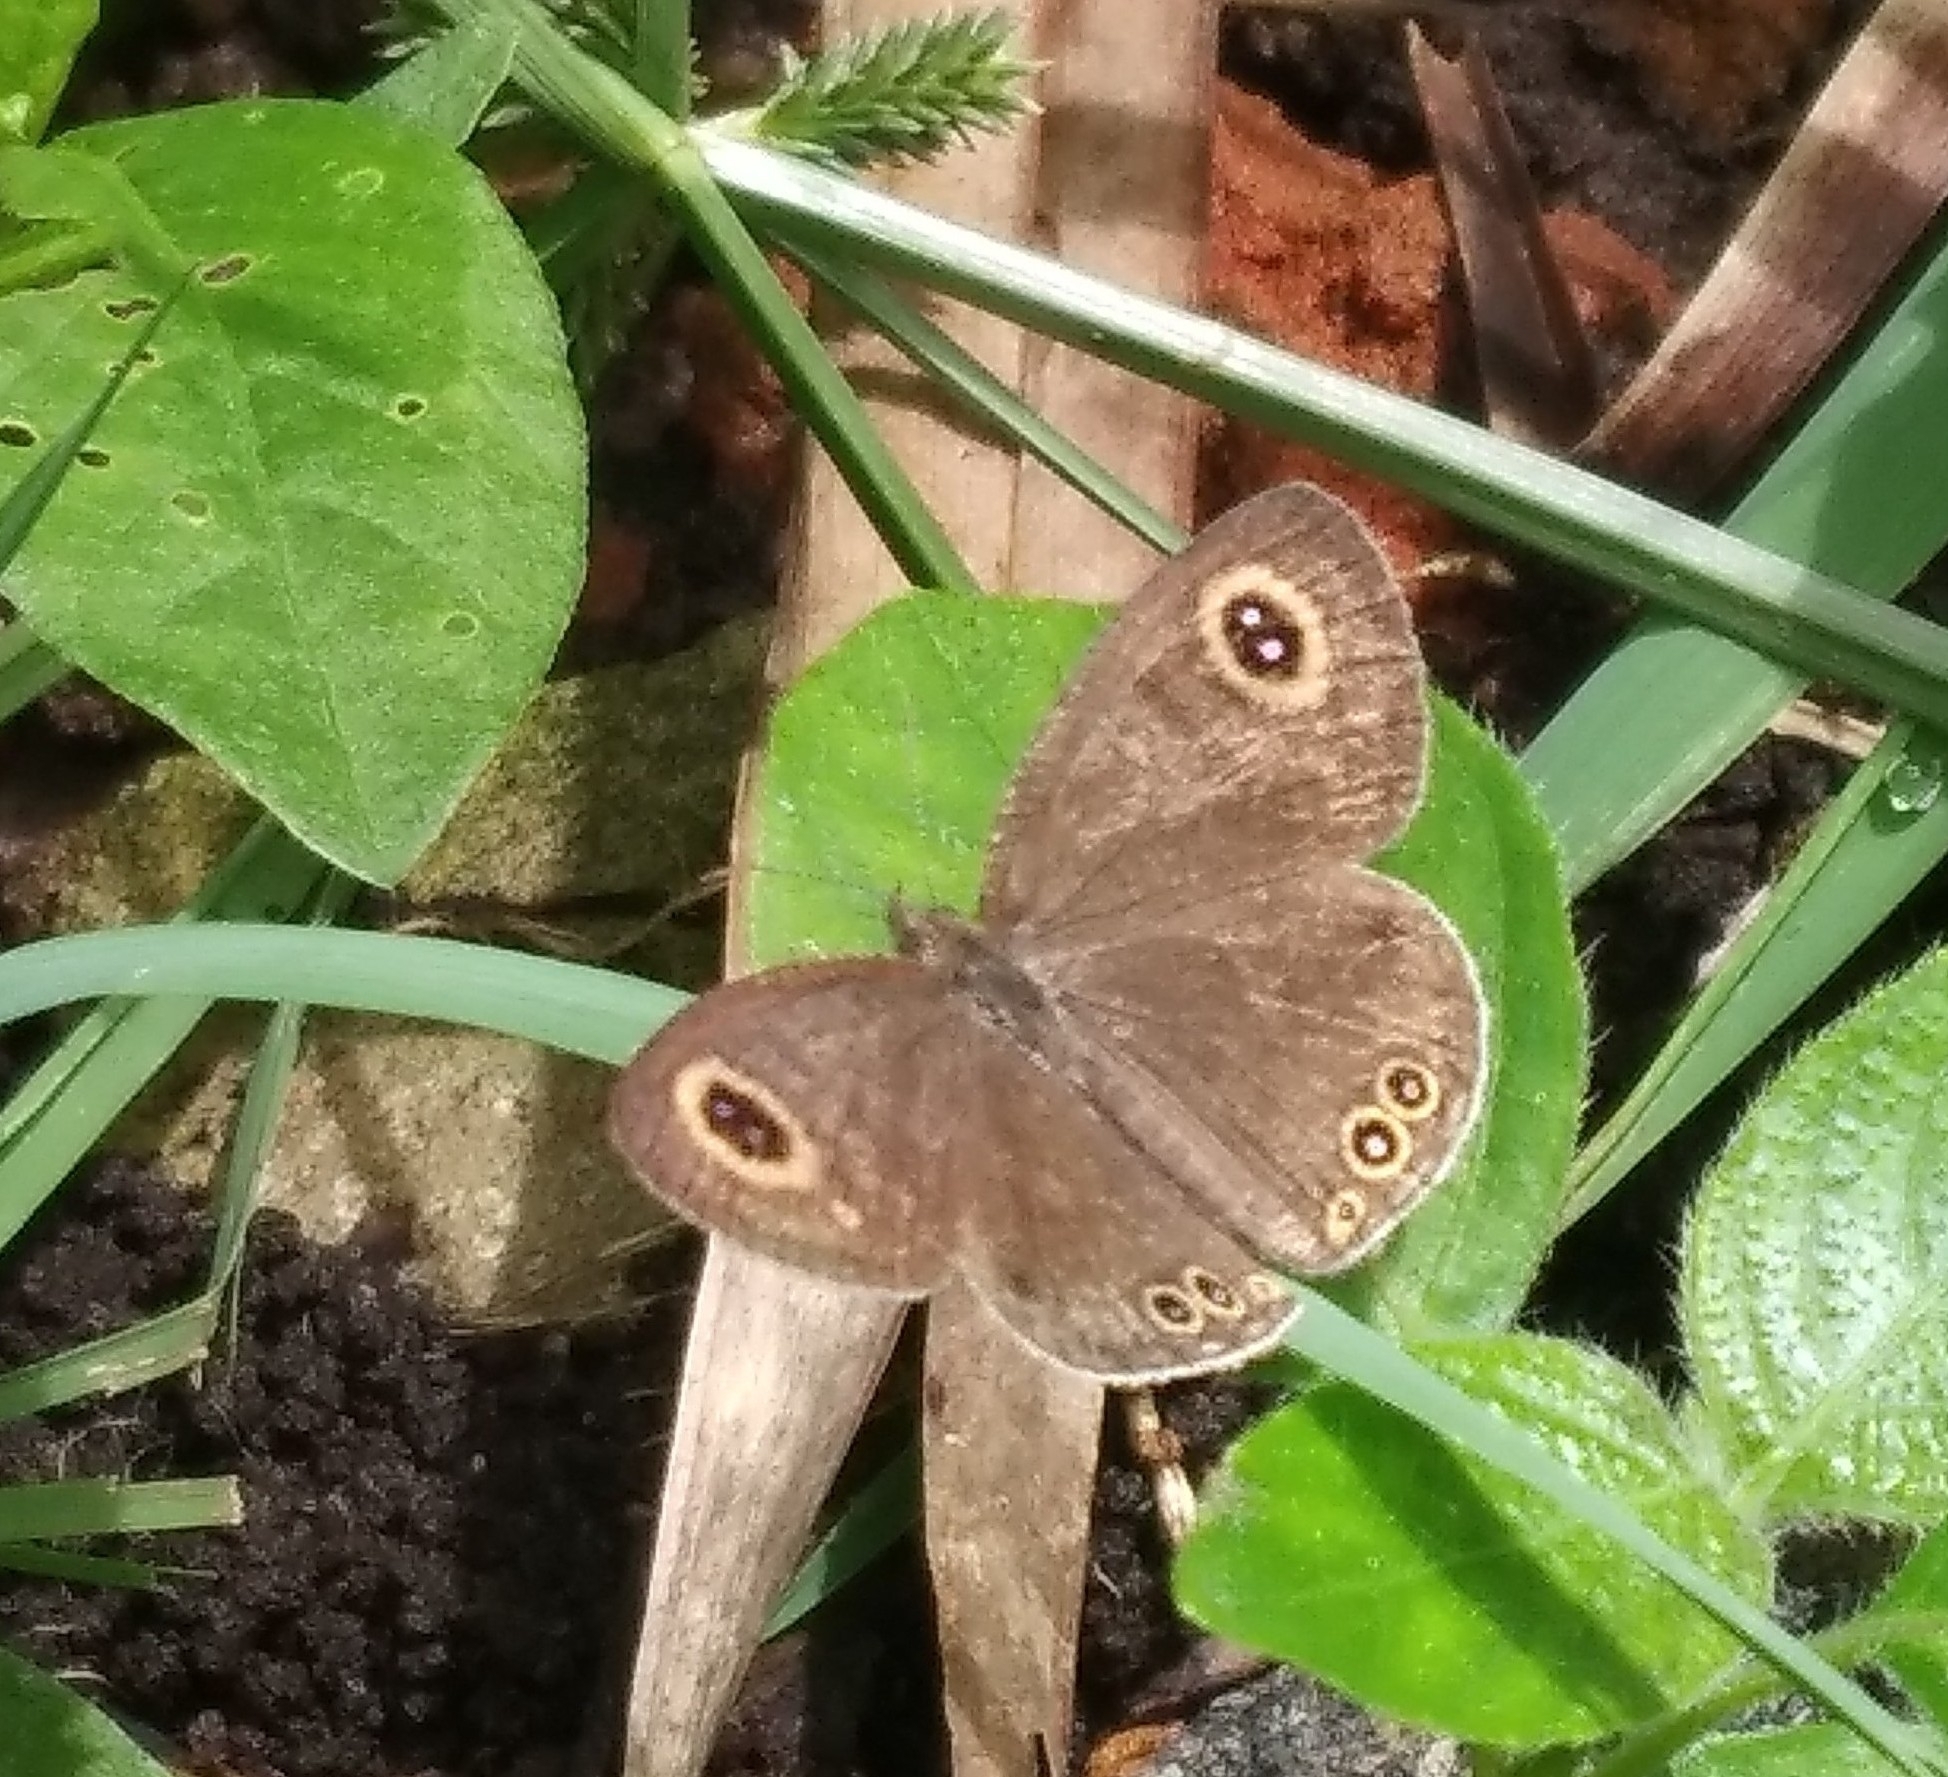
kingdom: Animalia
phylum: Arthropoda
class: Insecta
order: Lepidoptera
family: Nymphalidae
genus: Ypthima
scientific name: Ypthima huebneri
